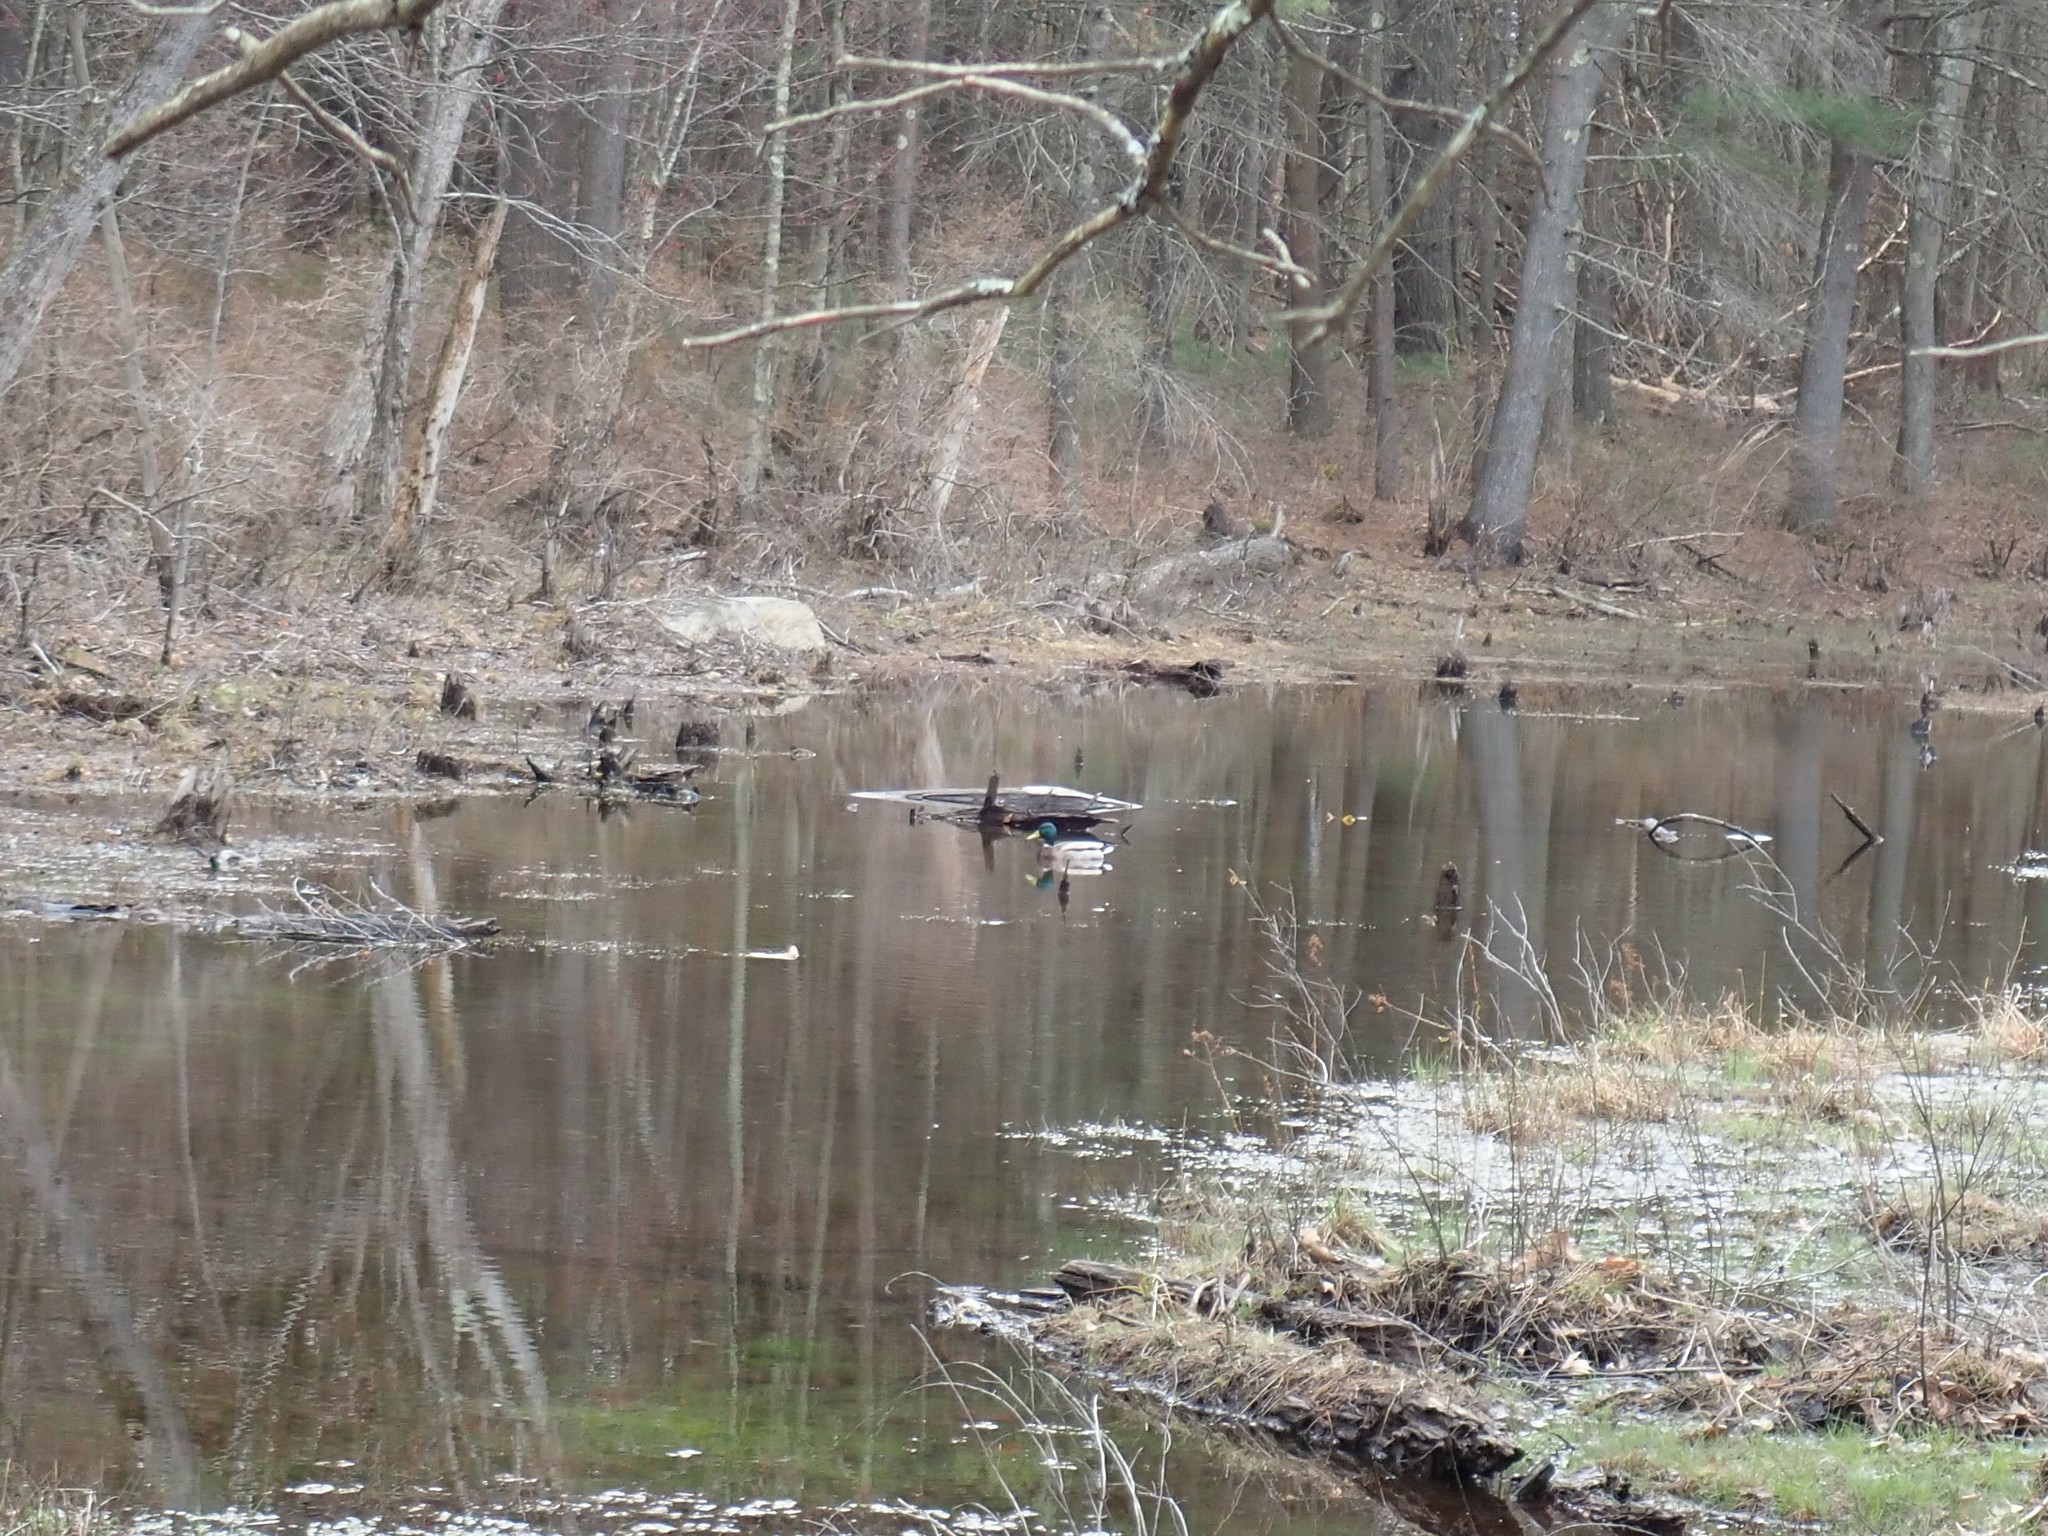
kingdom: Animalia
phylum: Chordata
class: Aves
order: Anseriformes
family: Anatidae
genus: Anas
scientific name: Anas platyrhynchos
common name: Mallard
